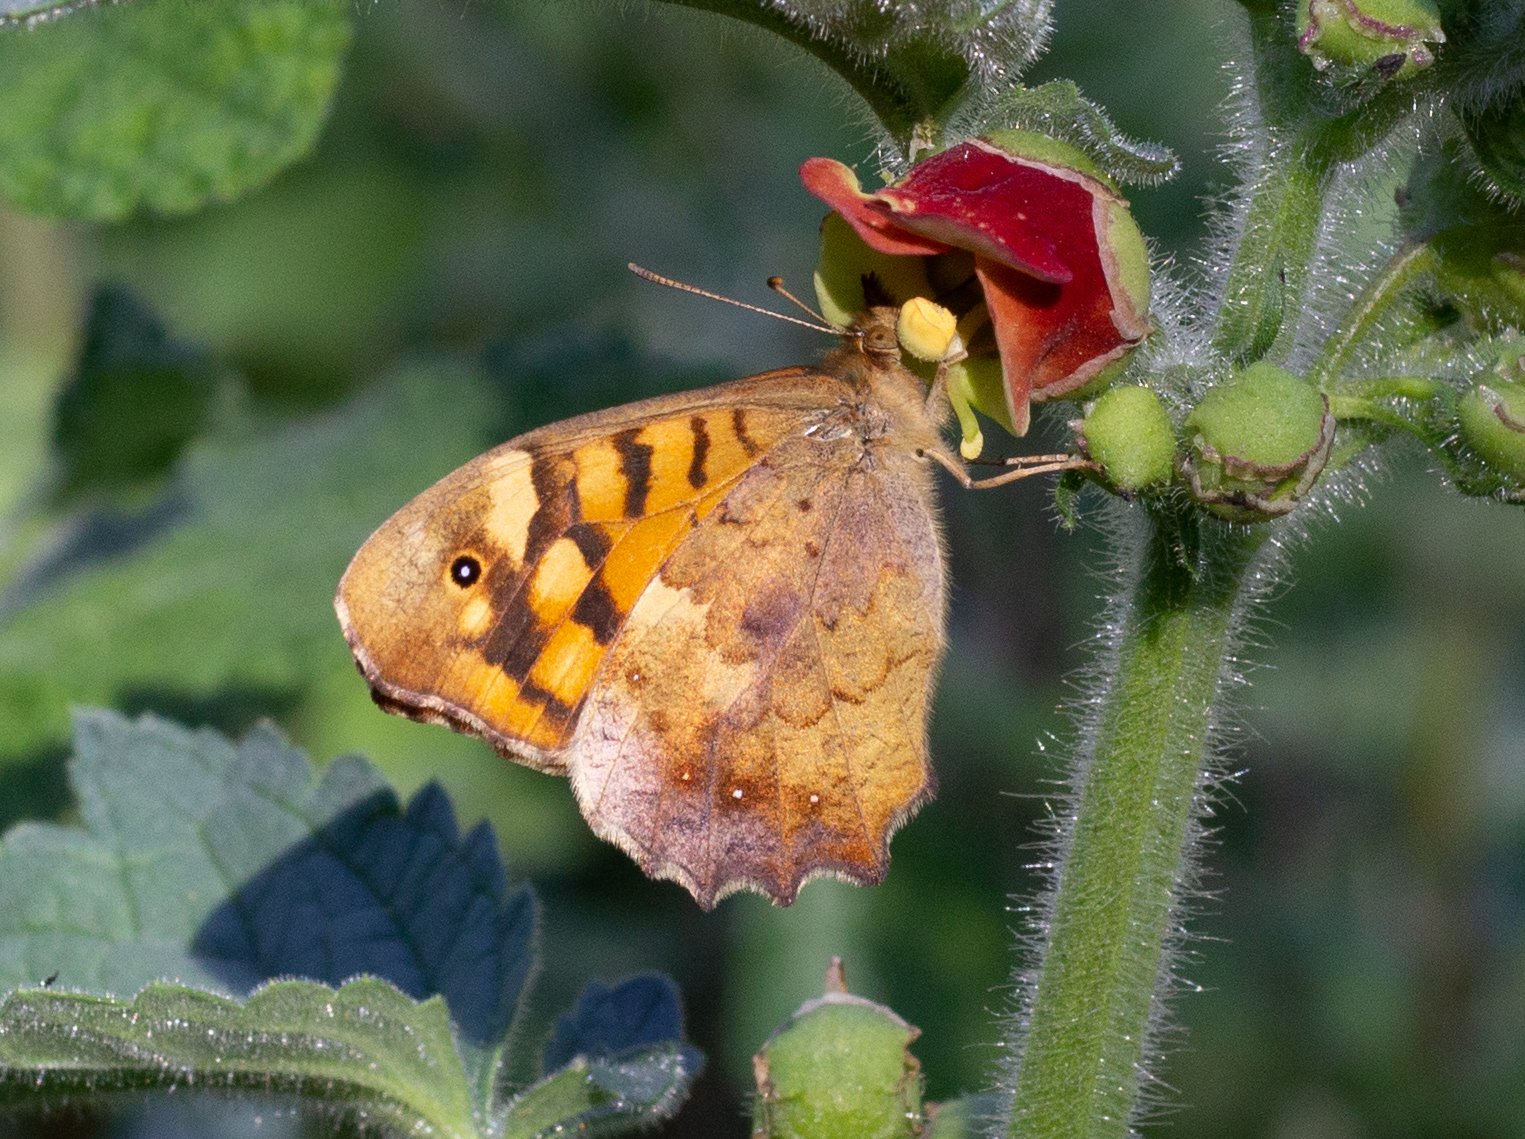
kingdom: Animalia
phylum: Arthropoda
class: Insecta
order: Lepidoptera
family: Nymphalidae
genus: Pararge
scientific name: Pararge aegeria
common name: Speckled wood
